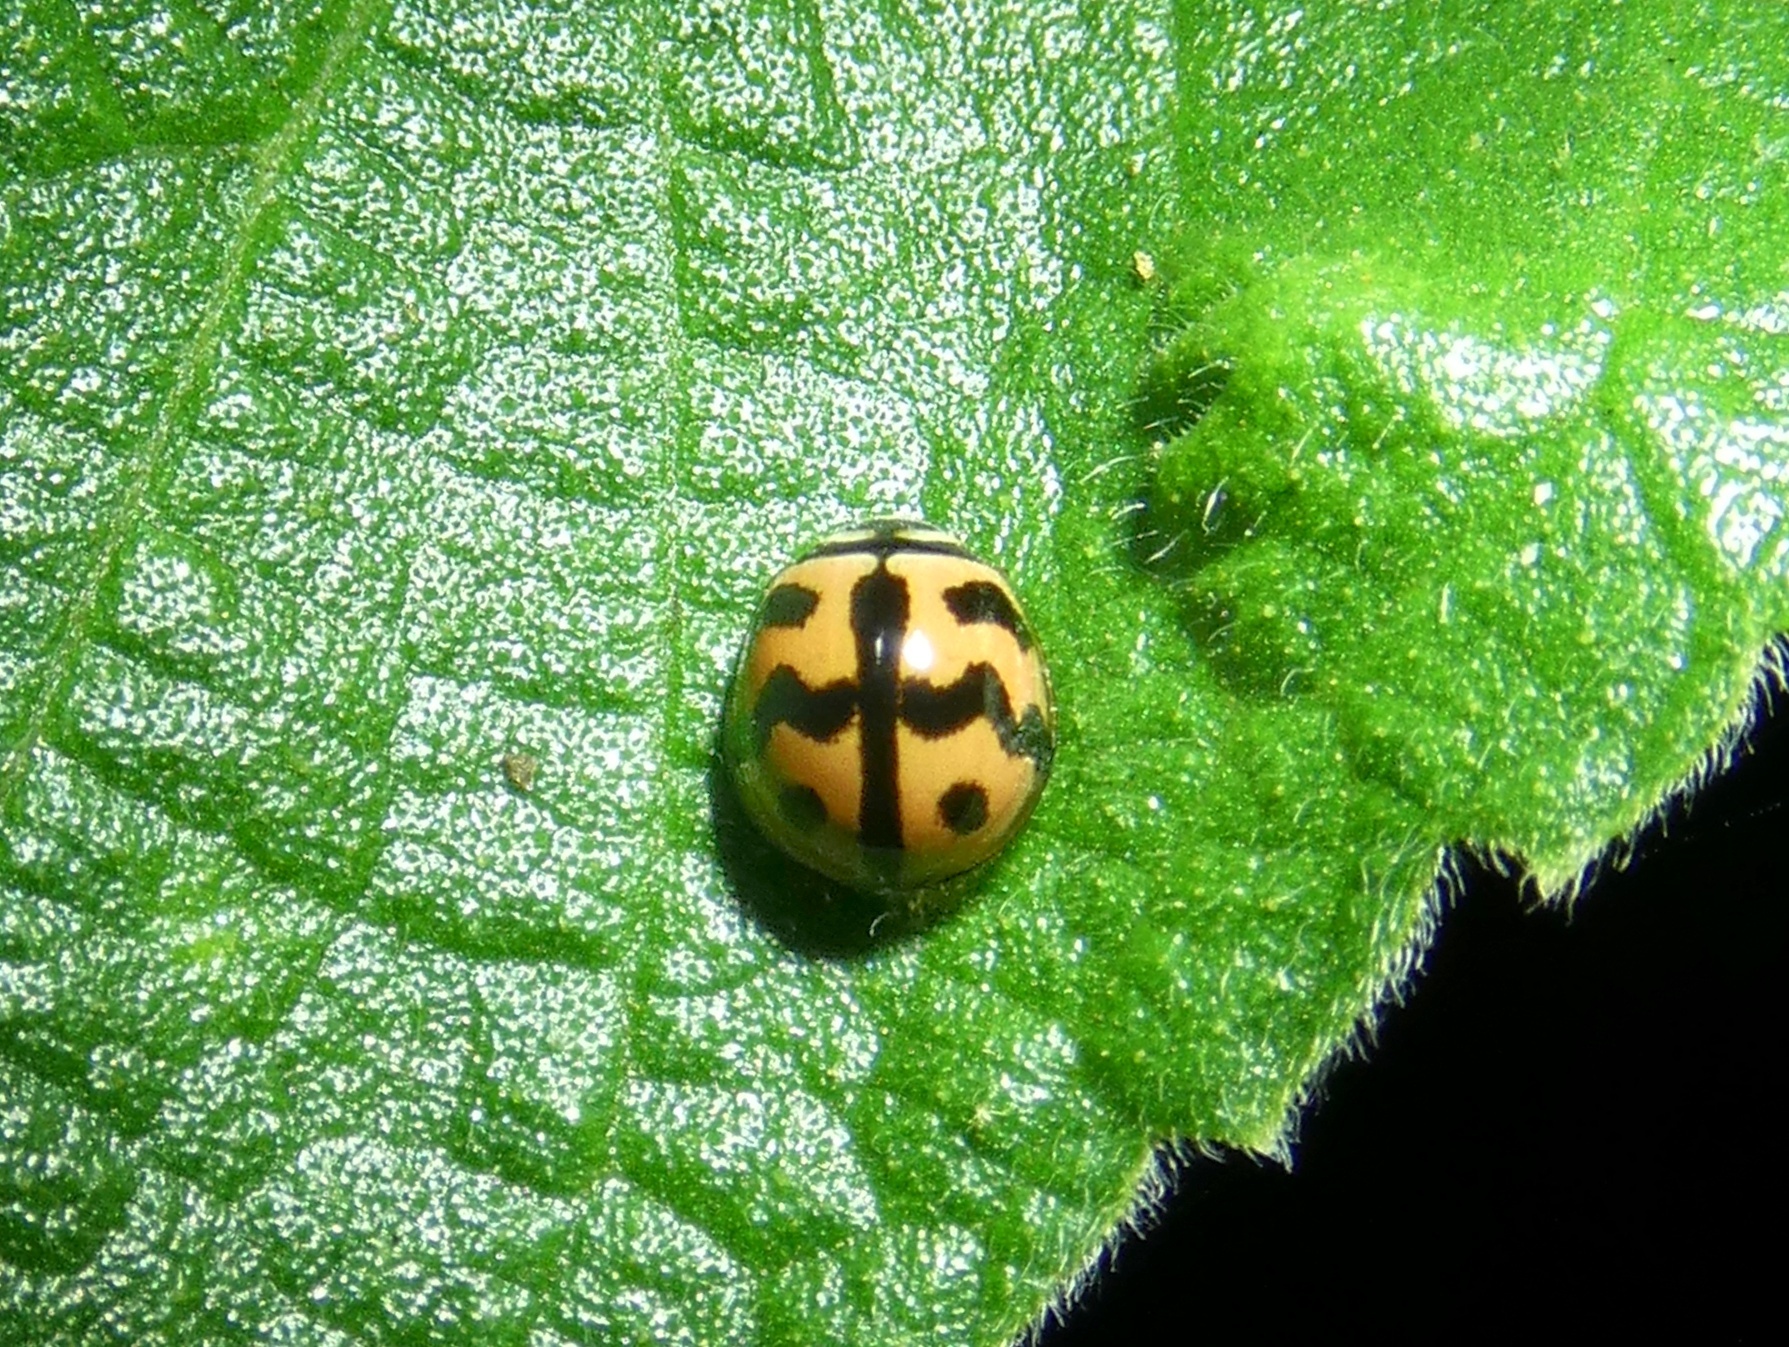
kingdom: Animalia
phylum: Arthropoda
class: Insecta
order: Coleoptera
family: Coccinellidae
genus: Cheilomenes
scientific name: Cheilomenes sexmaculata
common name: Ladybird beetle
